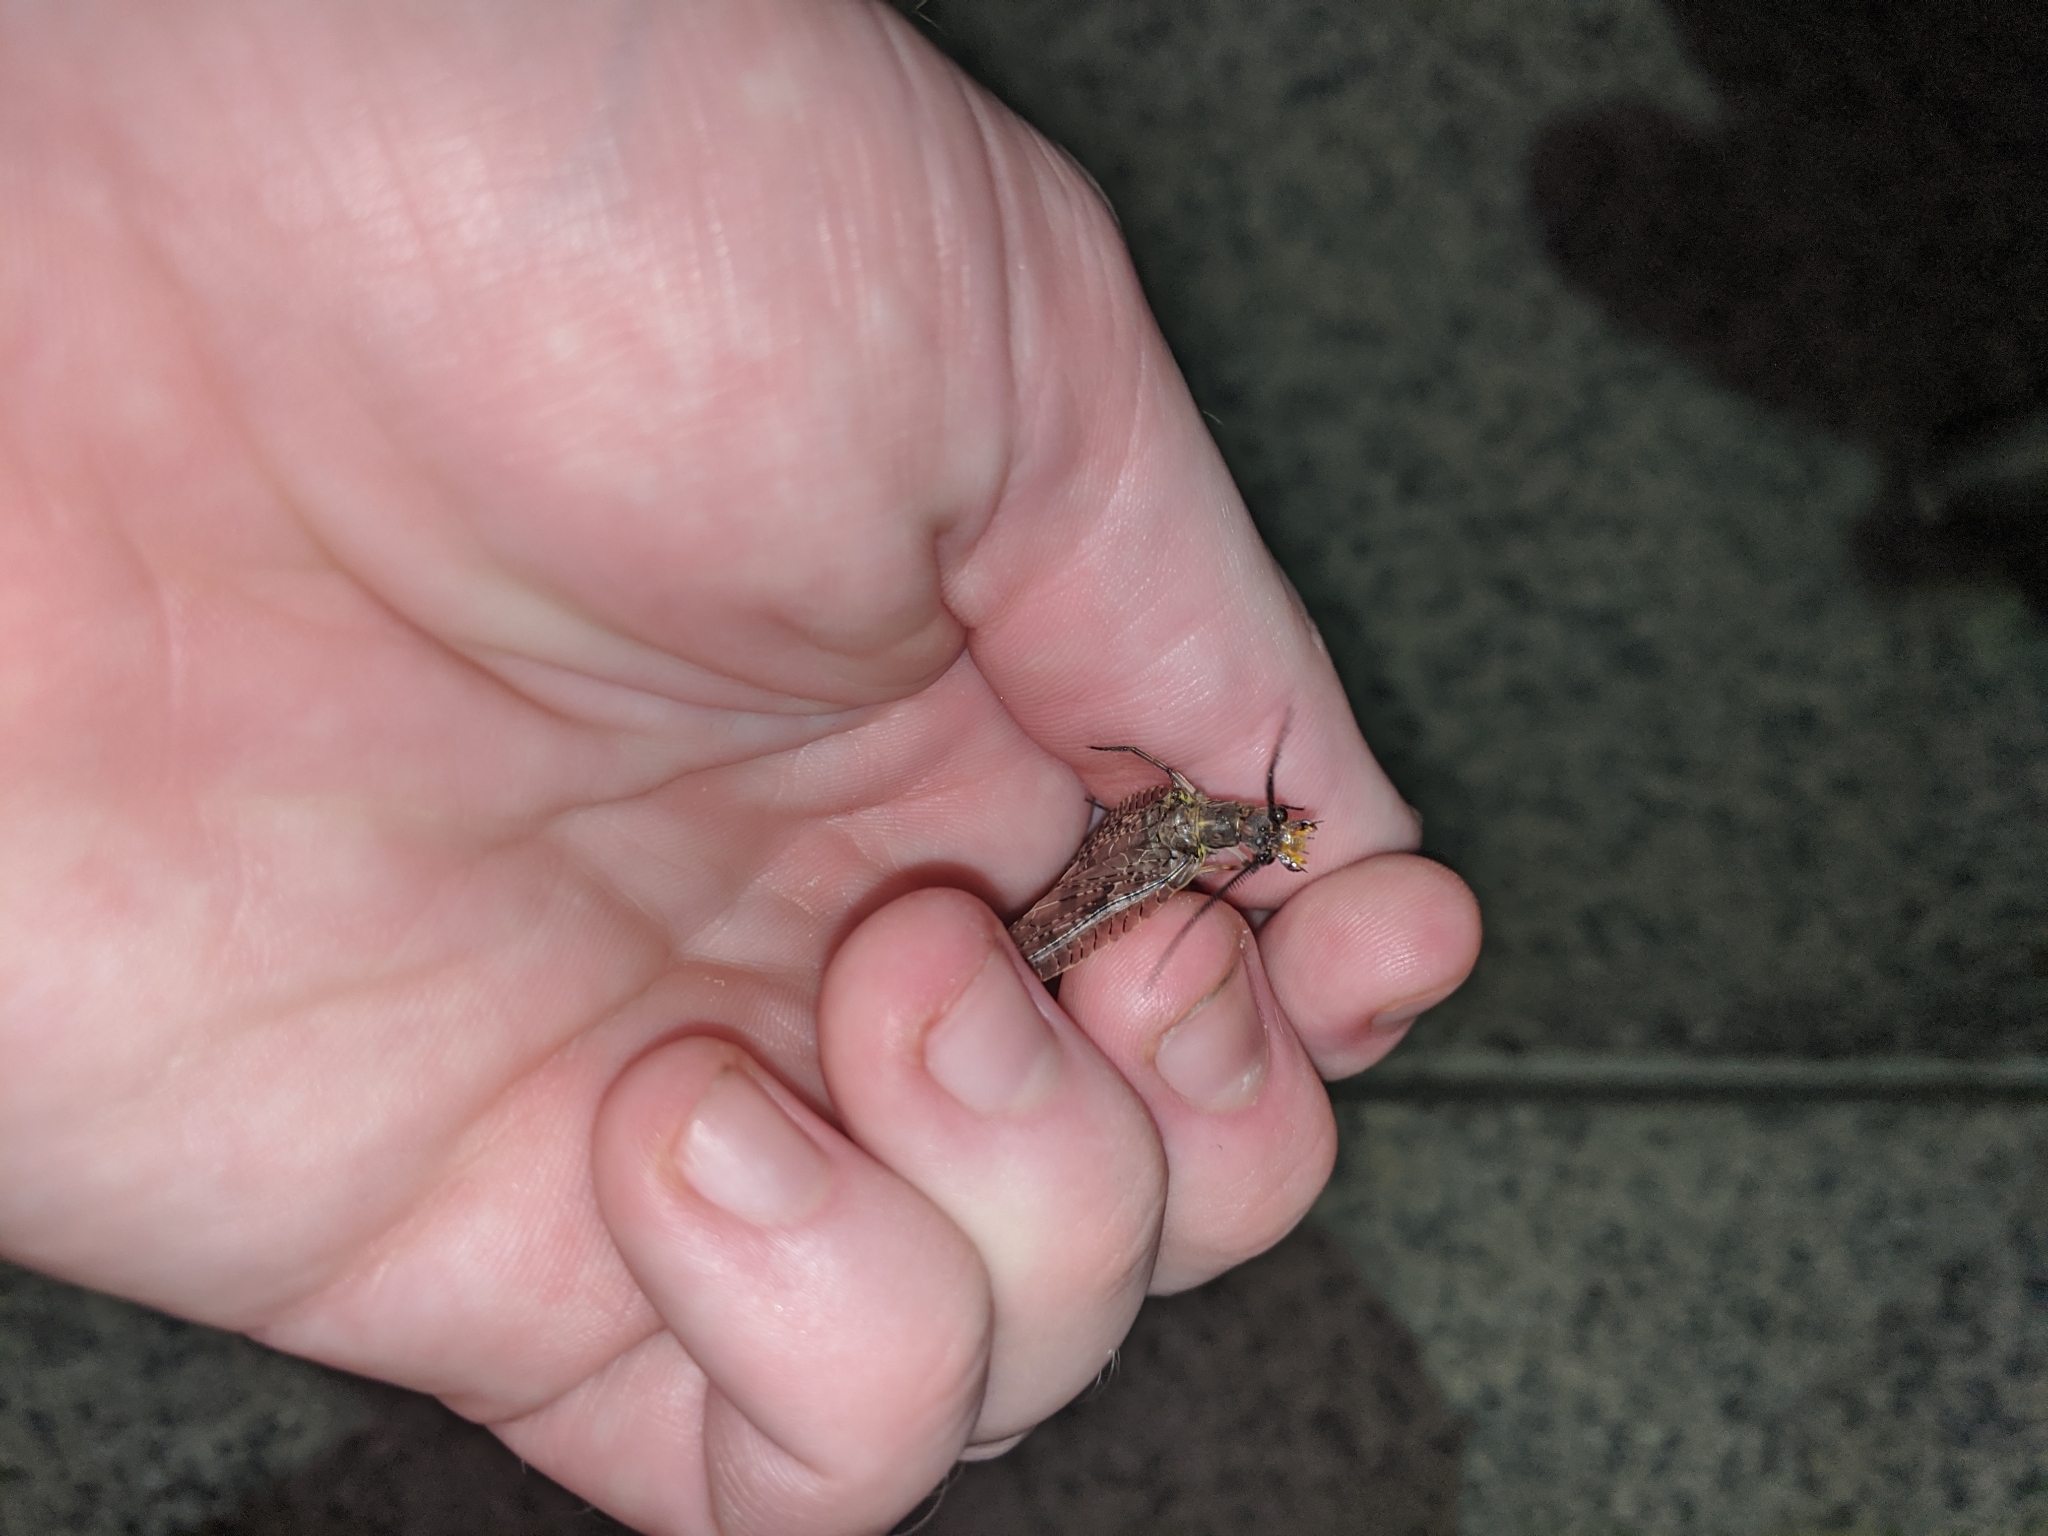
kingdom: Animalia
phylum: Arthropoda
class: Insecta
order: Megaloptera
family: Corydalidae
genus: Chauliodes
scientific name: Chauliodes pectinicornis
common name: Summer fishfly
